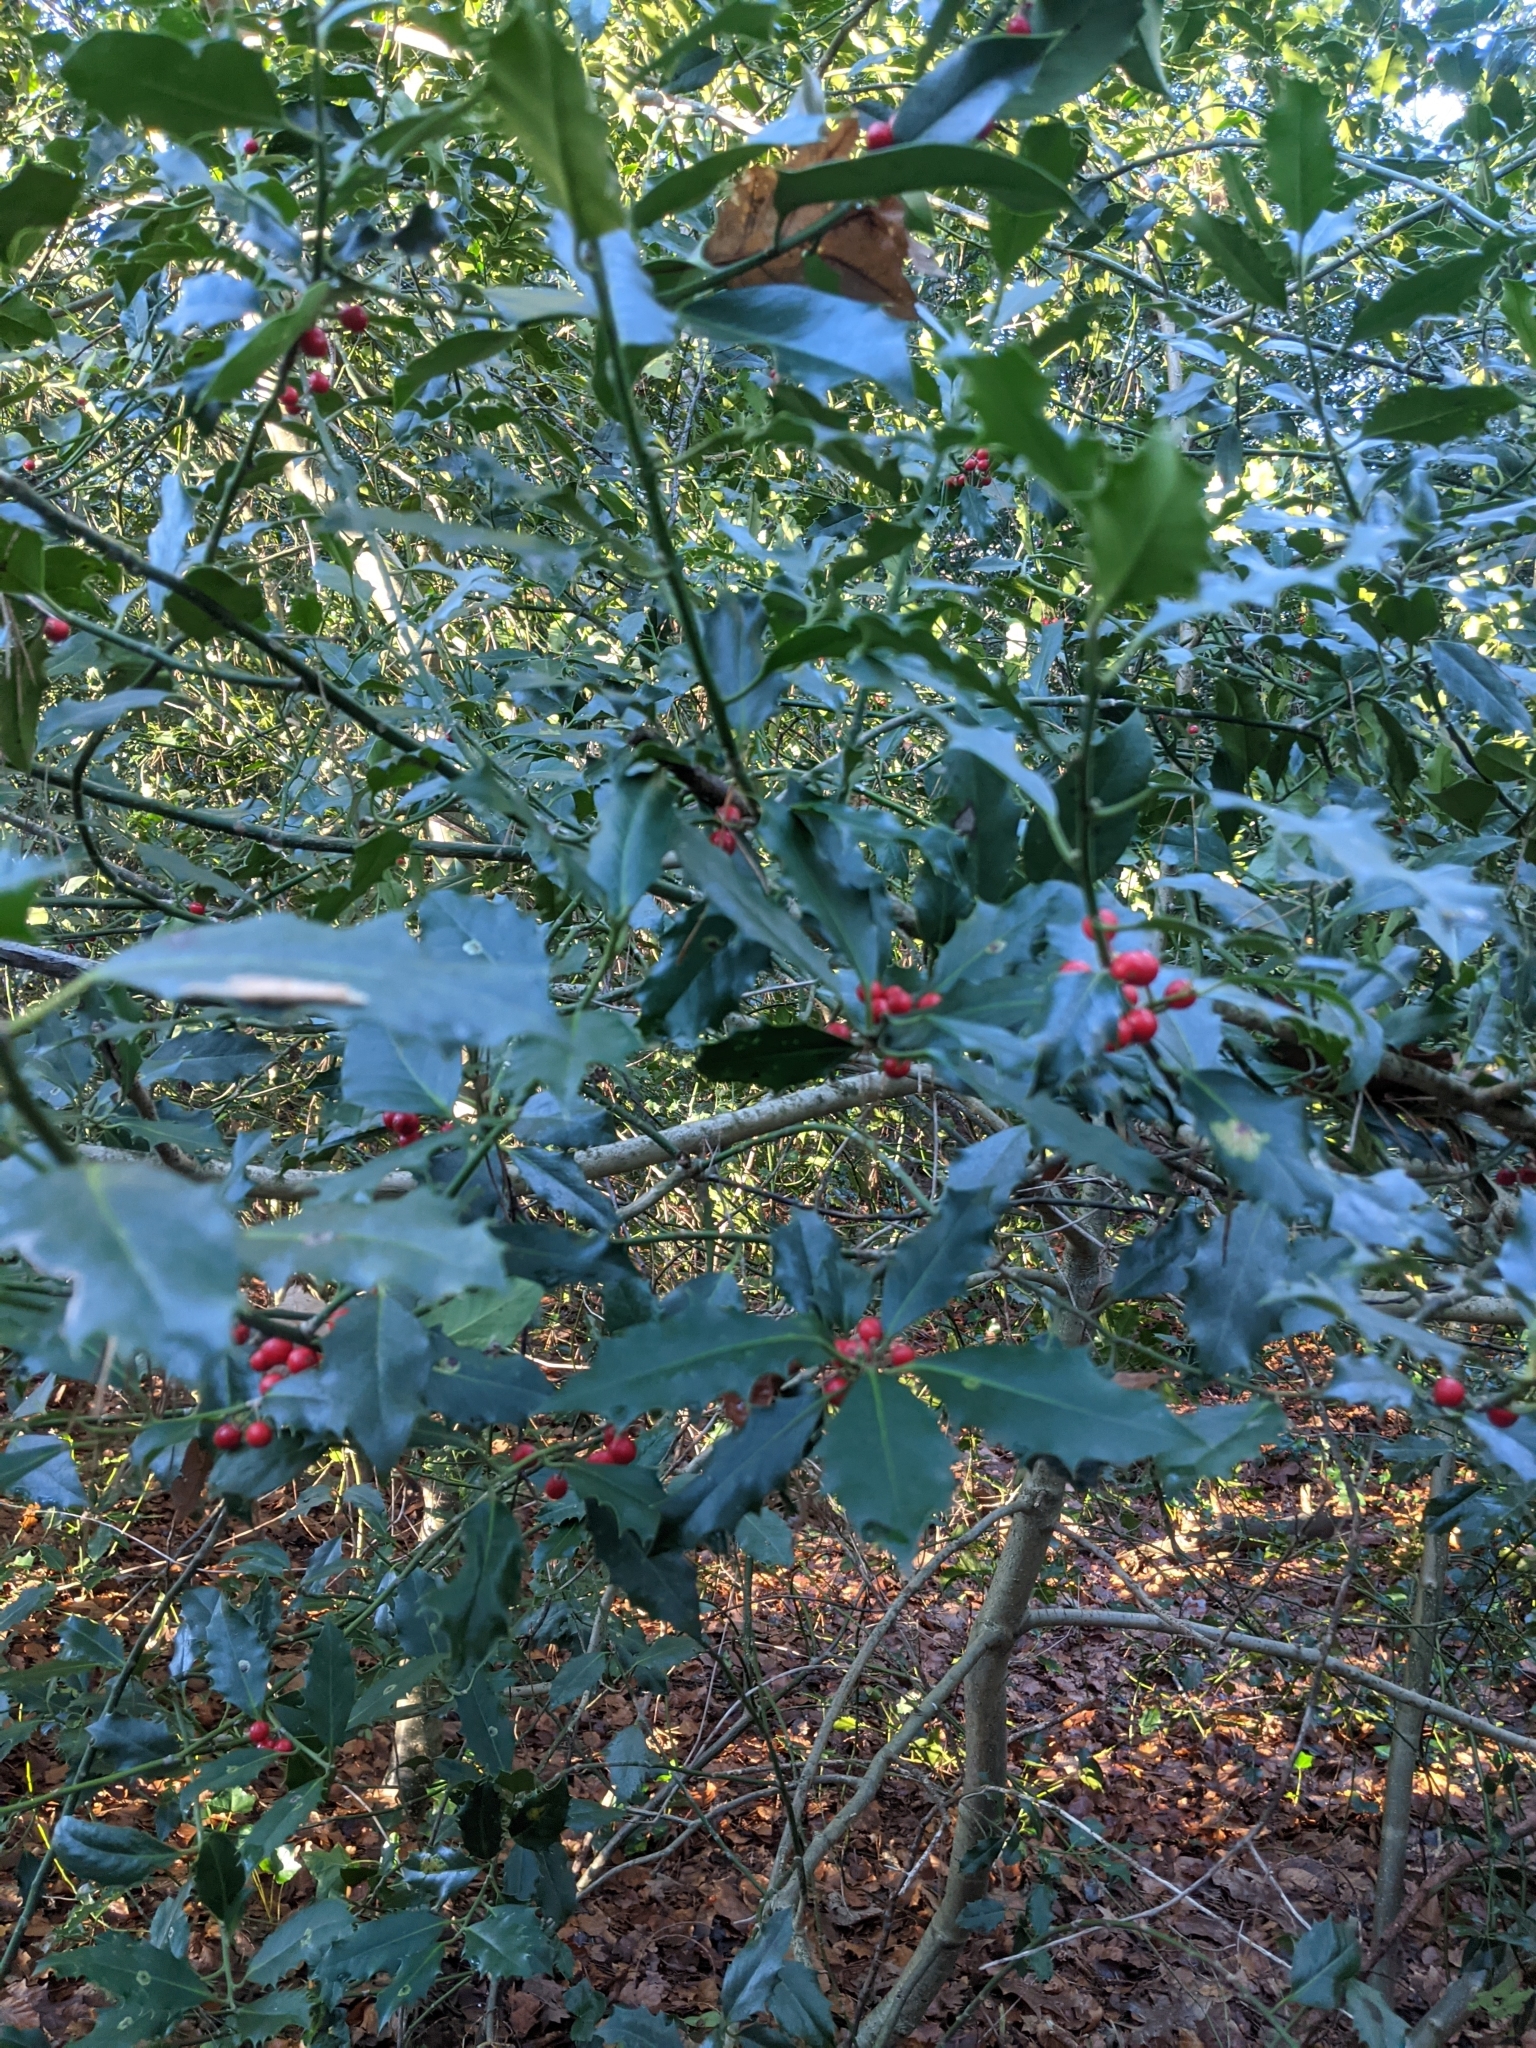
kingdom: Plantae
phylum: Tracheophyta
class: Magnoliopsida
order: Aquifoliales
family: Aquifoliaceae
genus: Ilex
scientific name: Ilex aquifolium
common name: English holly
